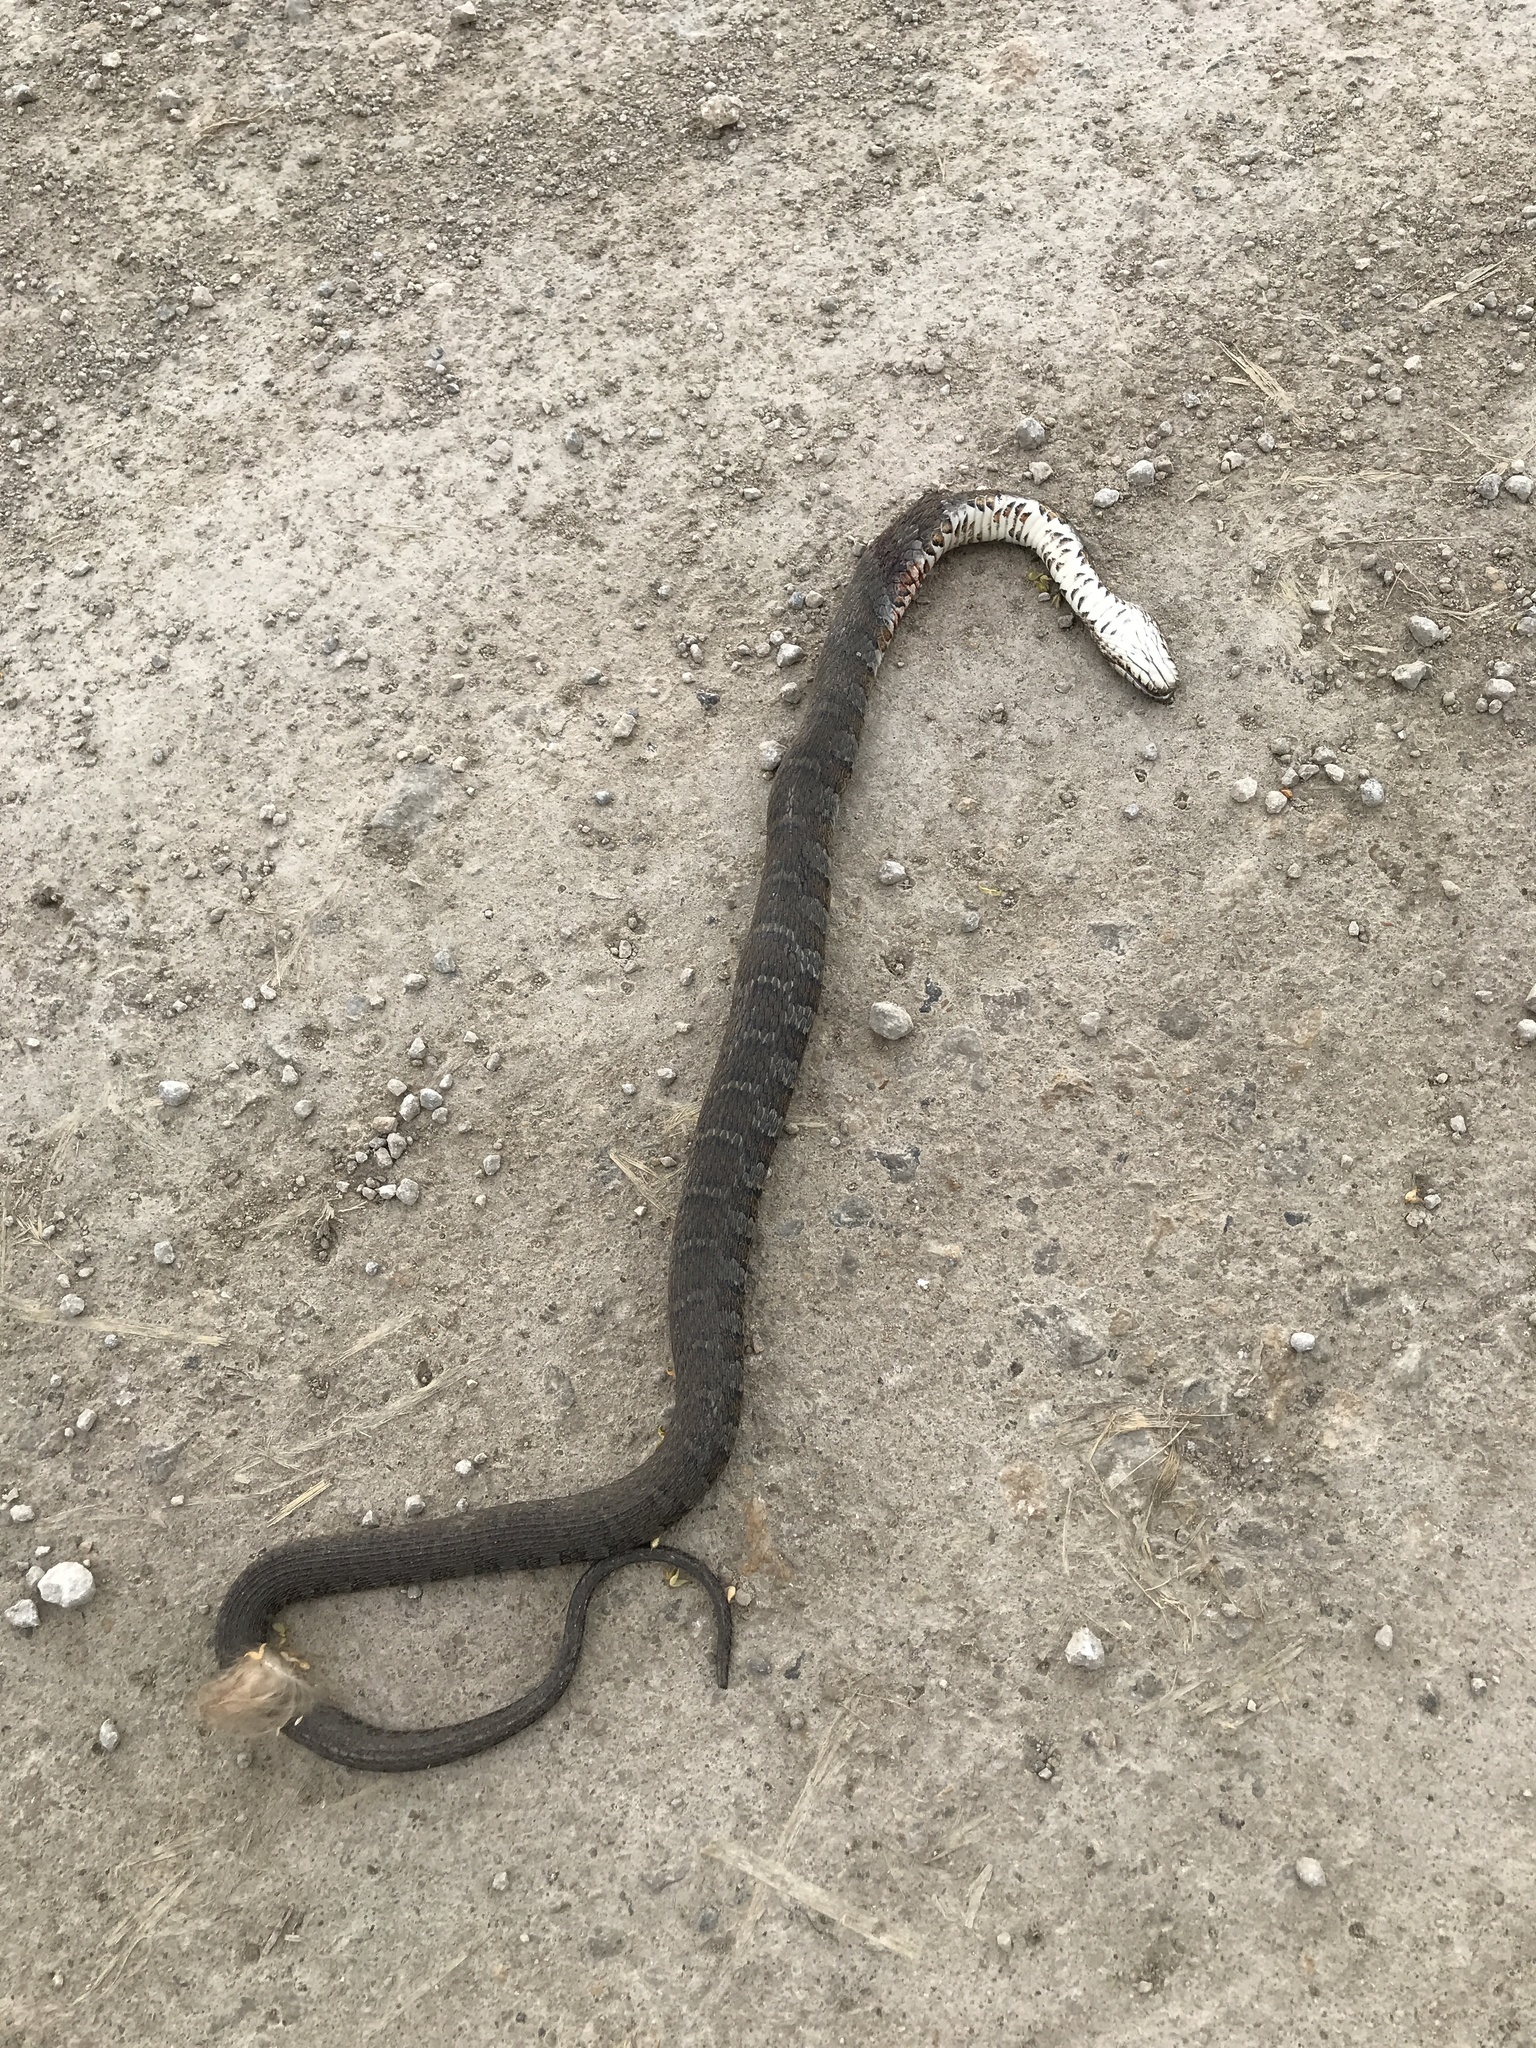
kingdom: Animalia
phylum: Chordata
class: Squamata
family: Colubridae
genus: Nerodia
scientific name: Nerodia sipedon
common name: Northern water snake
